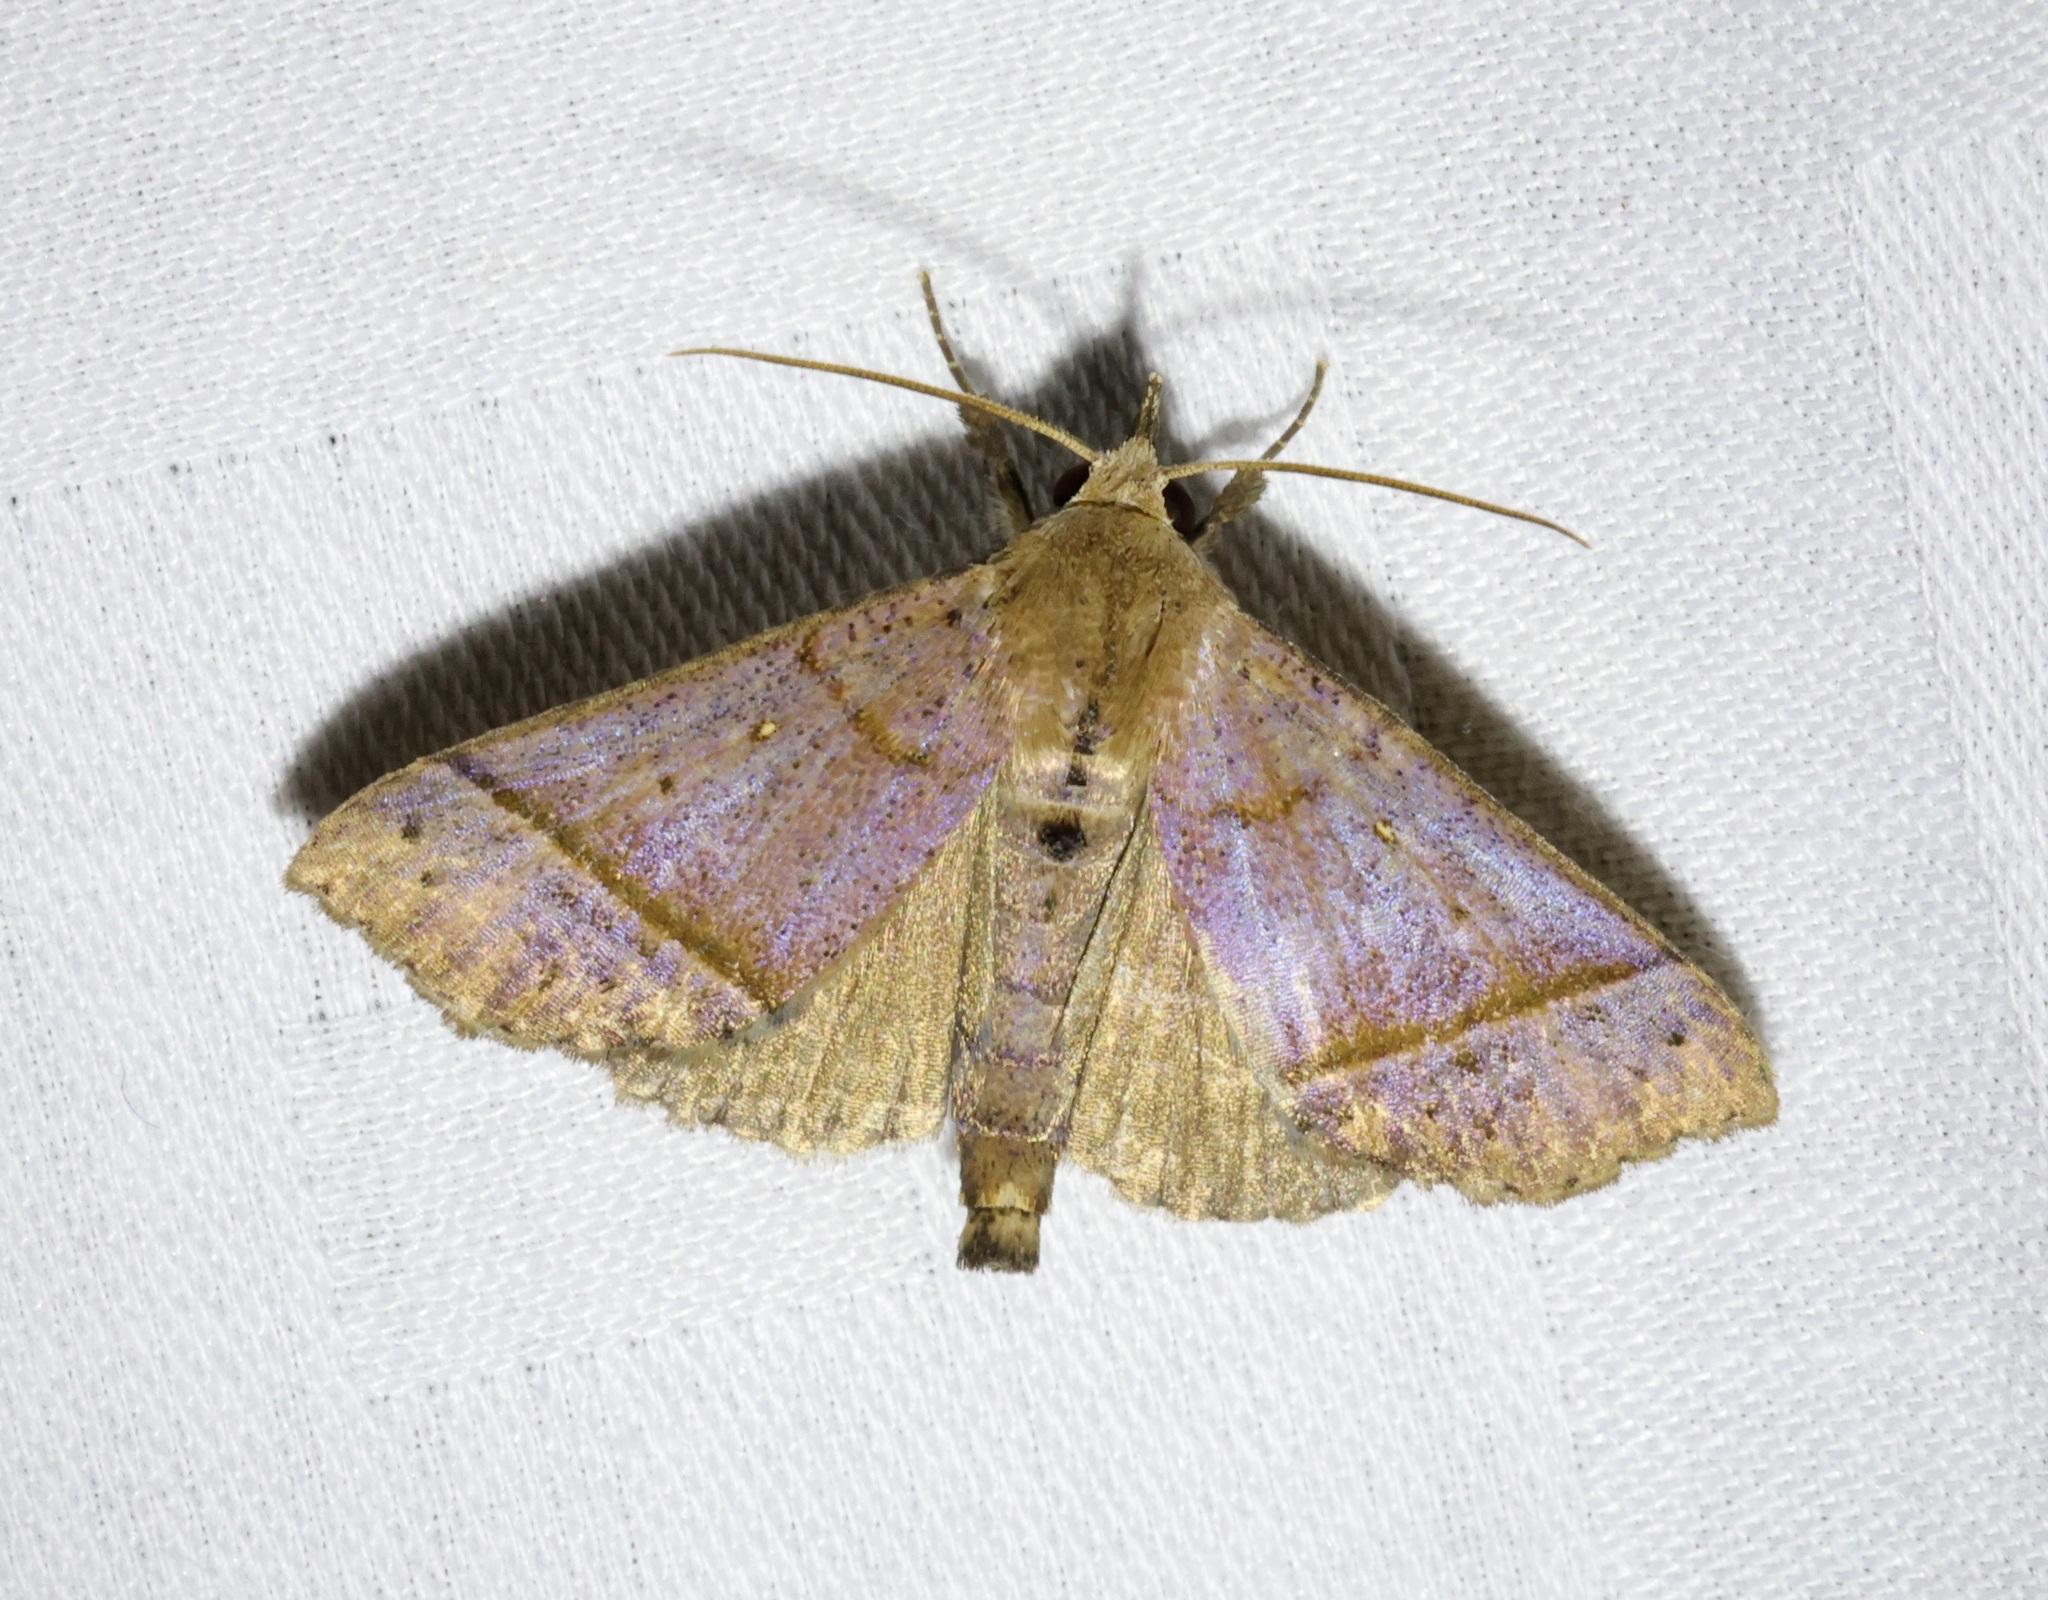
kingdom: Animalia
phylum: Arthropoda
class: Insecta
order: Lepidoptera
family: Erebidae
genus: Hepatica
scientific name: Hepatica irrorata
